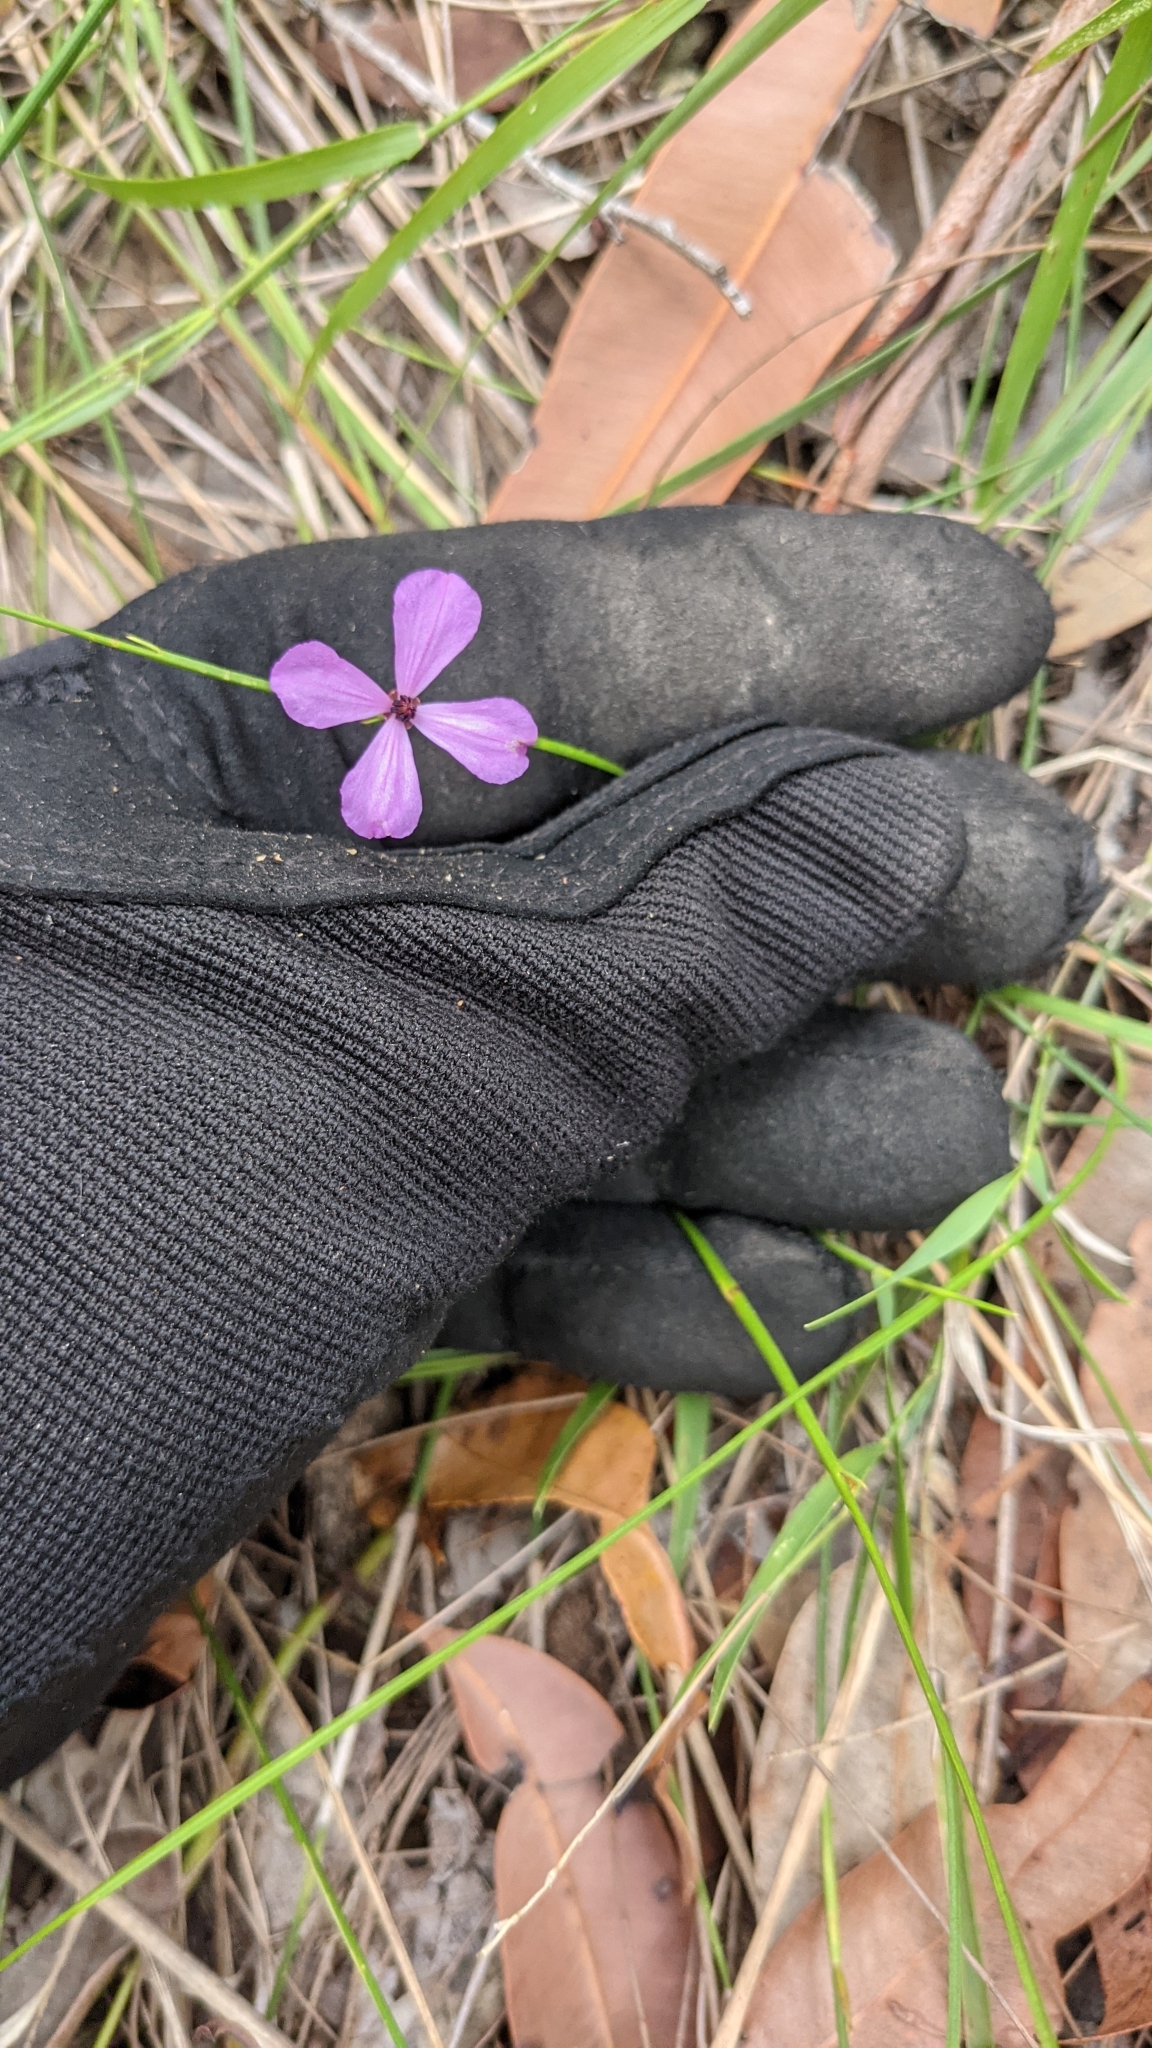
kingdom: Plantae
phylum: Tracheophyta
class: Magnoliopsida
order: Oxalidales
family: Elaeocarpaceae
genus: Tetratheca
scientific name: Tetratheca juncea
